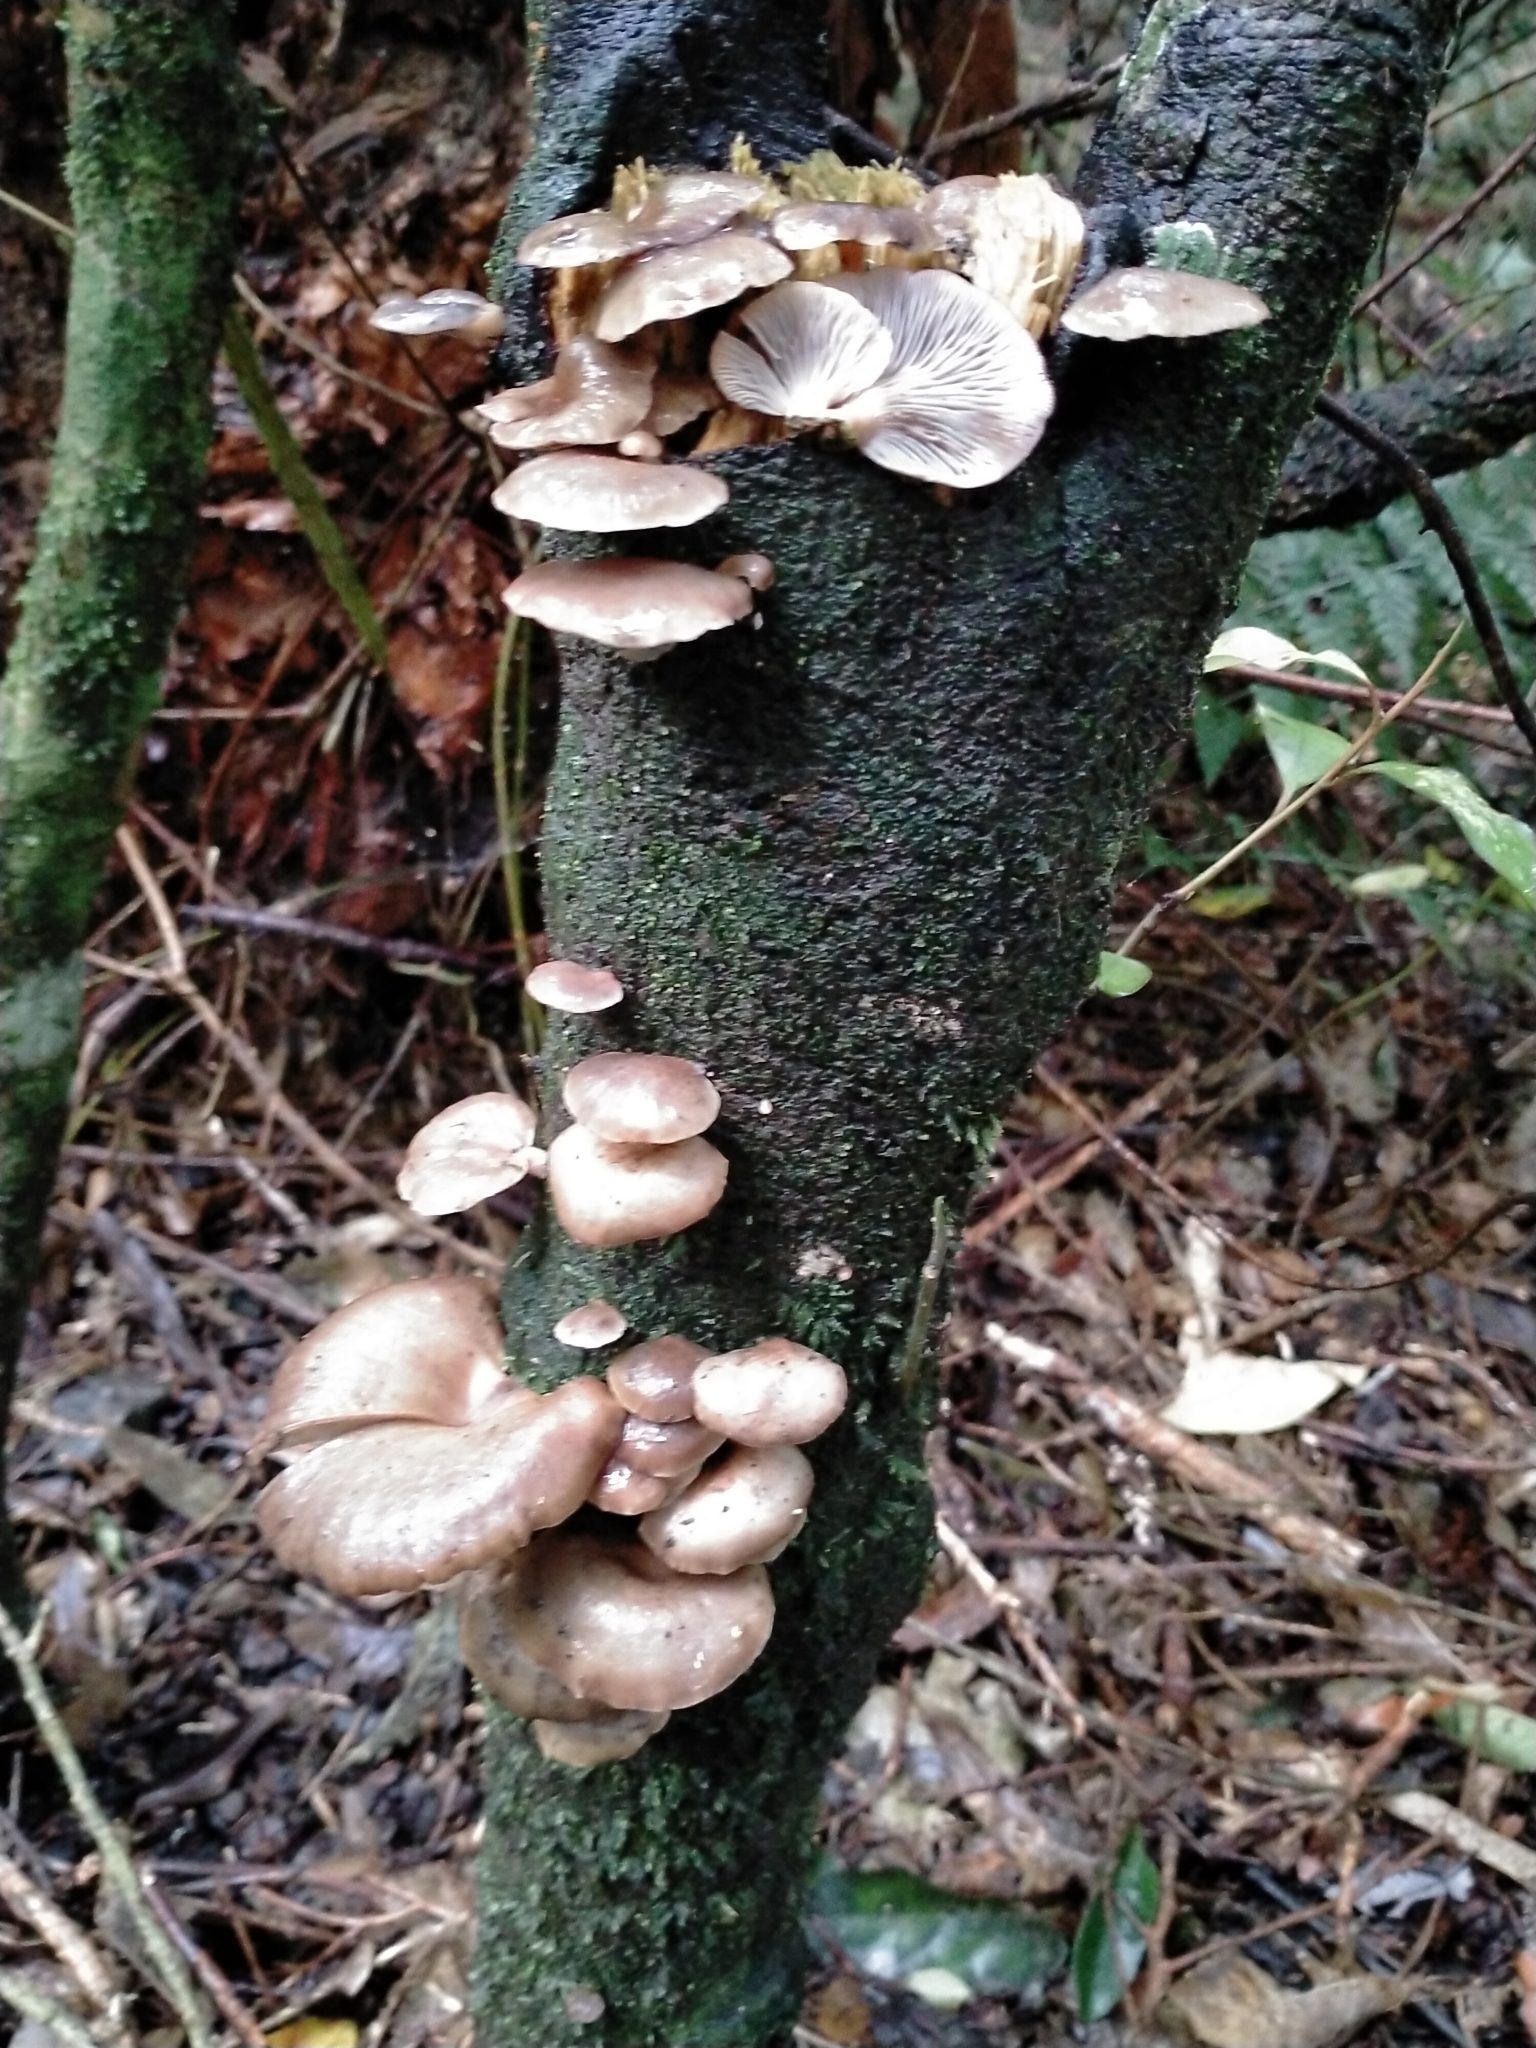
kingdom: Fungi
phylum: Basidiomycota
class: Agaricomycetes
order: Agaricales
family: Mycenaceae
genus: Panellus
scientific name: Panellus longinquus
